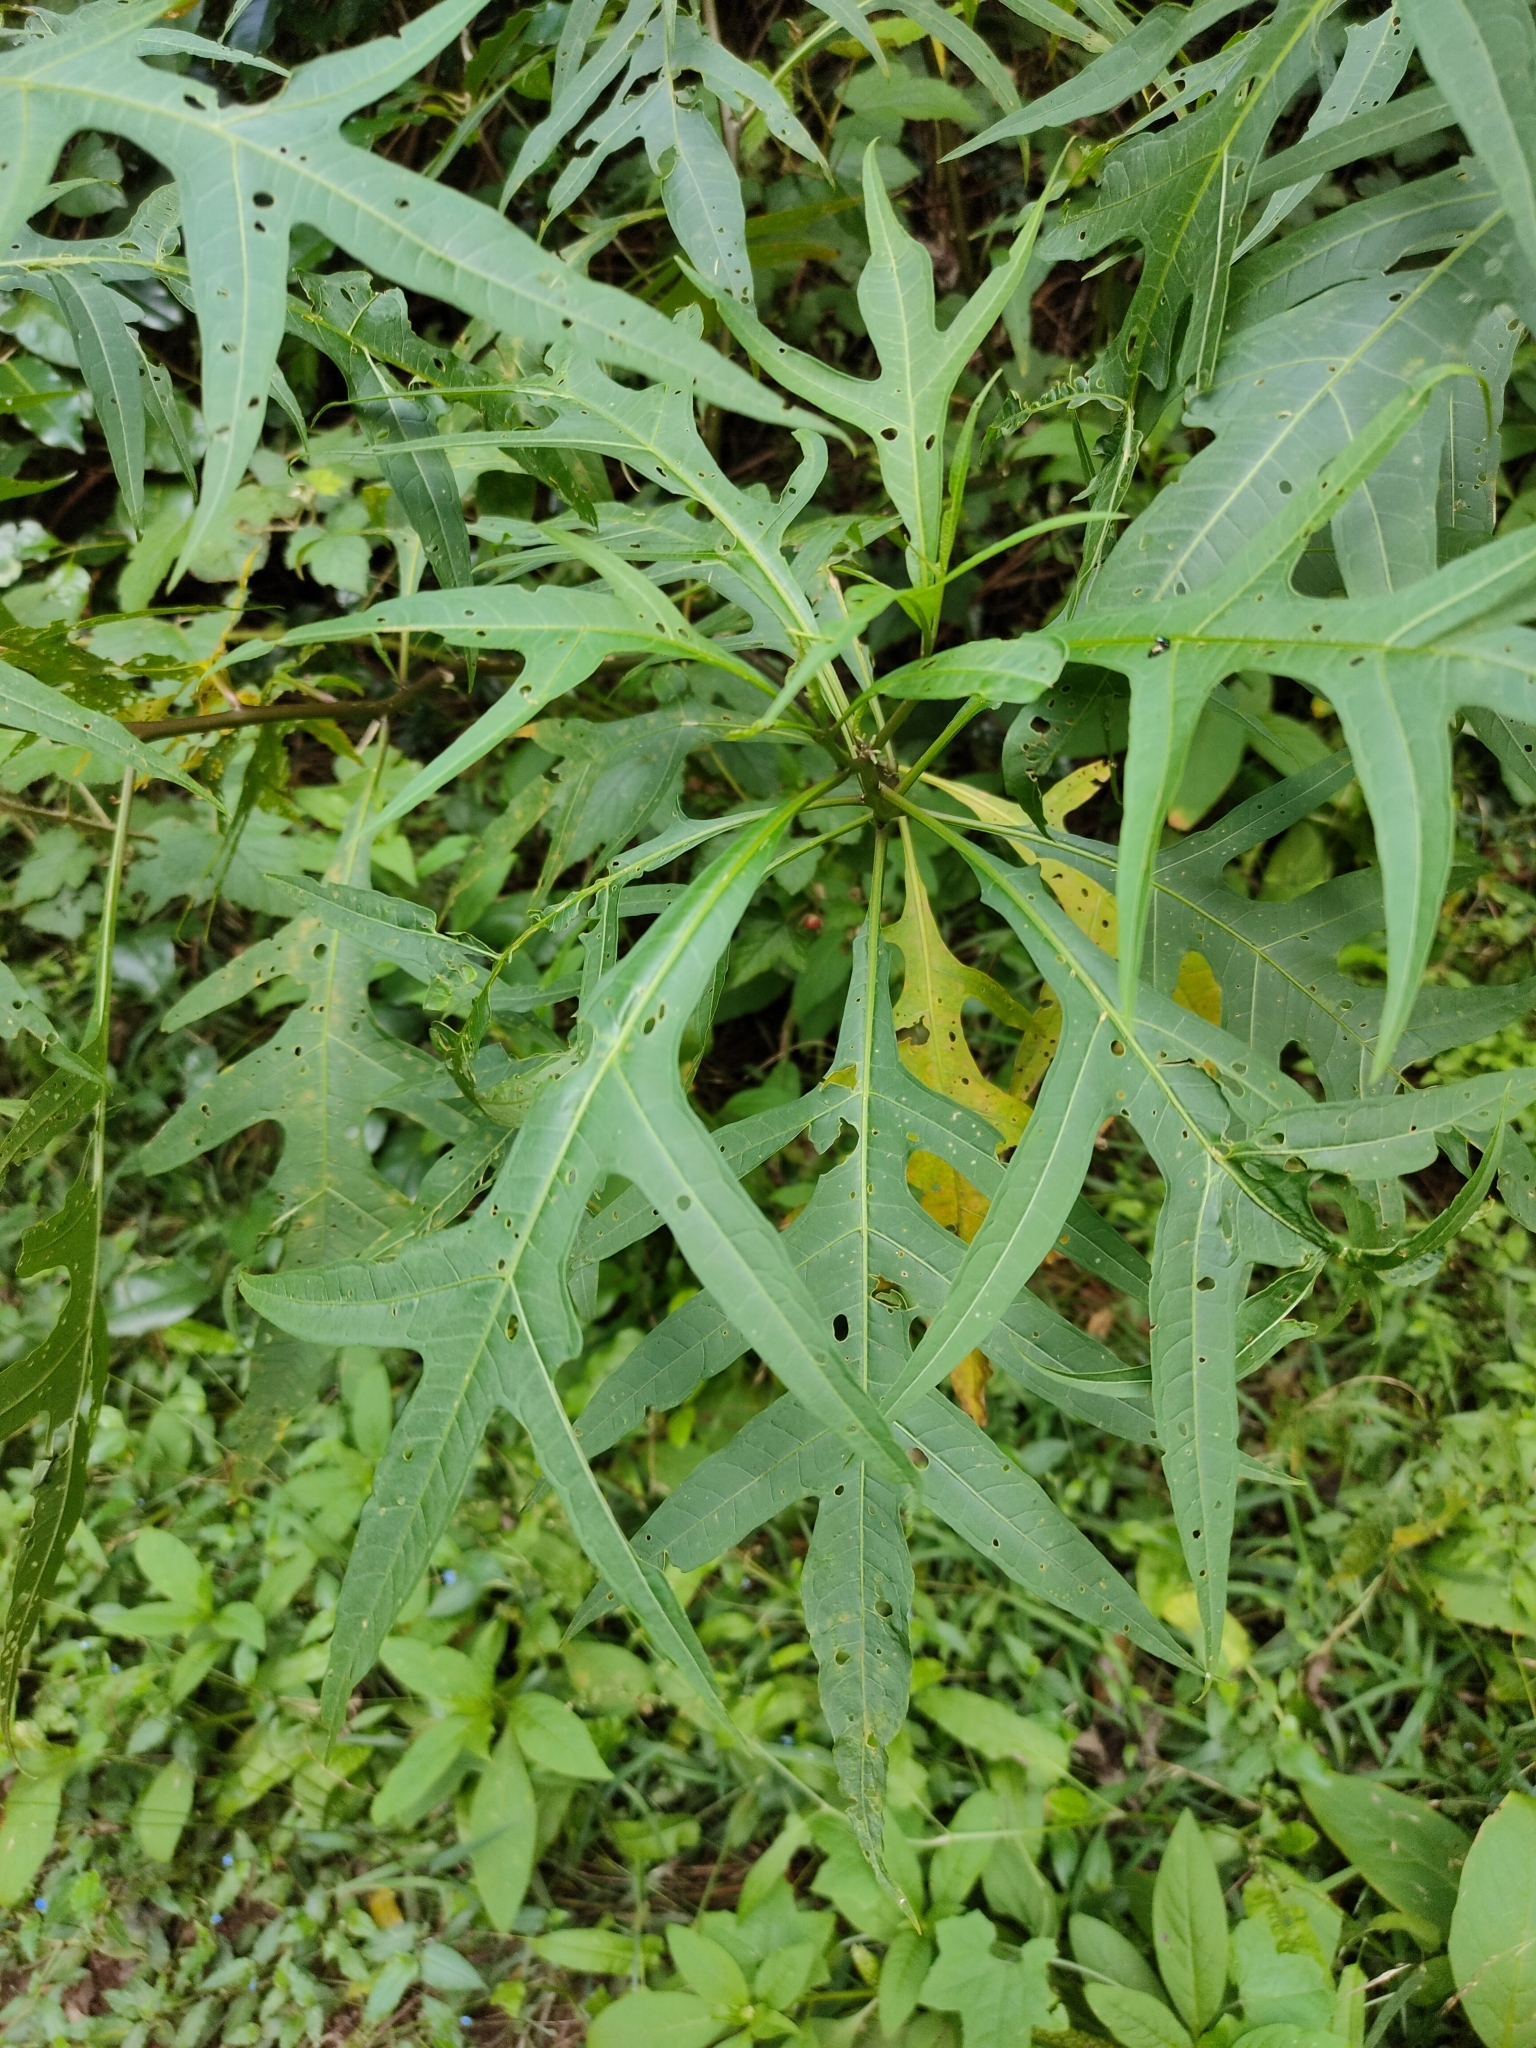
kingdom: Plantae
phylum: Tracheophyta
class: Magnoliopsida
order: Solanales
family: Solanaceae
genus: Solanum
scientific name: Solanum aviculare
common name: New zealand nightshade
